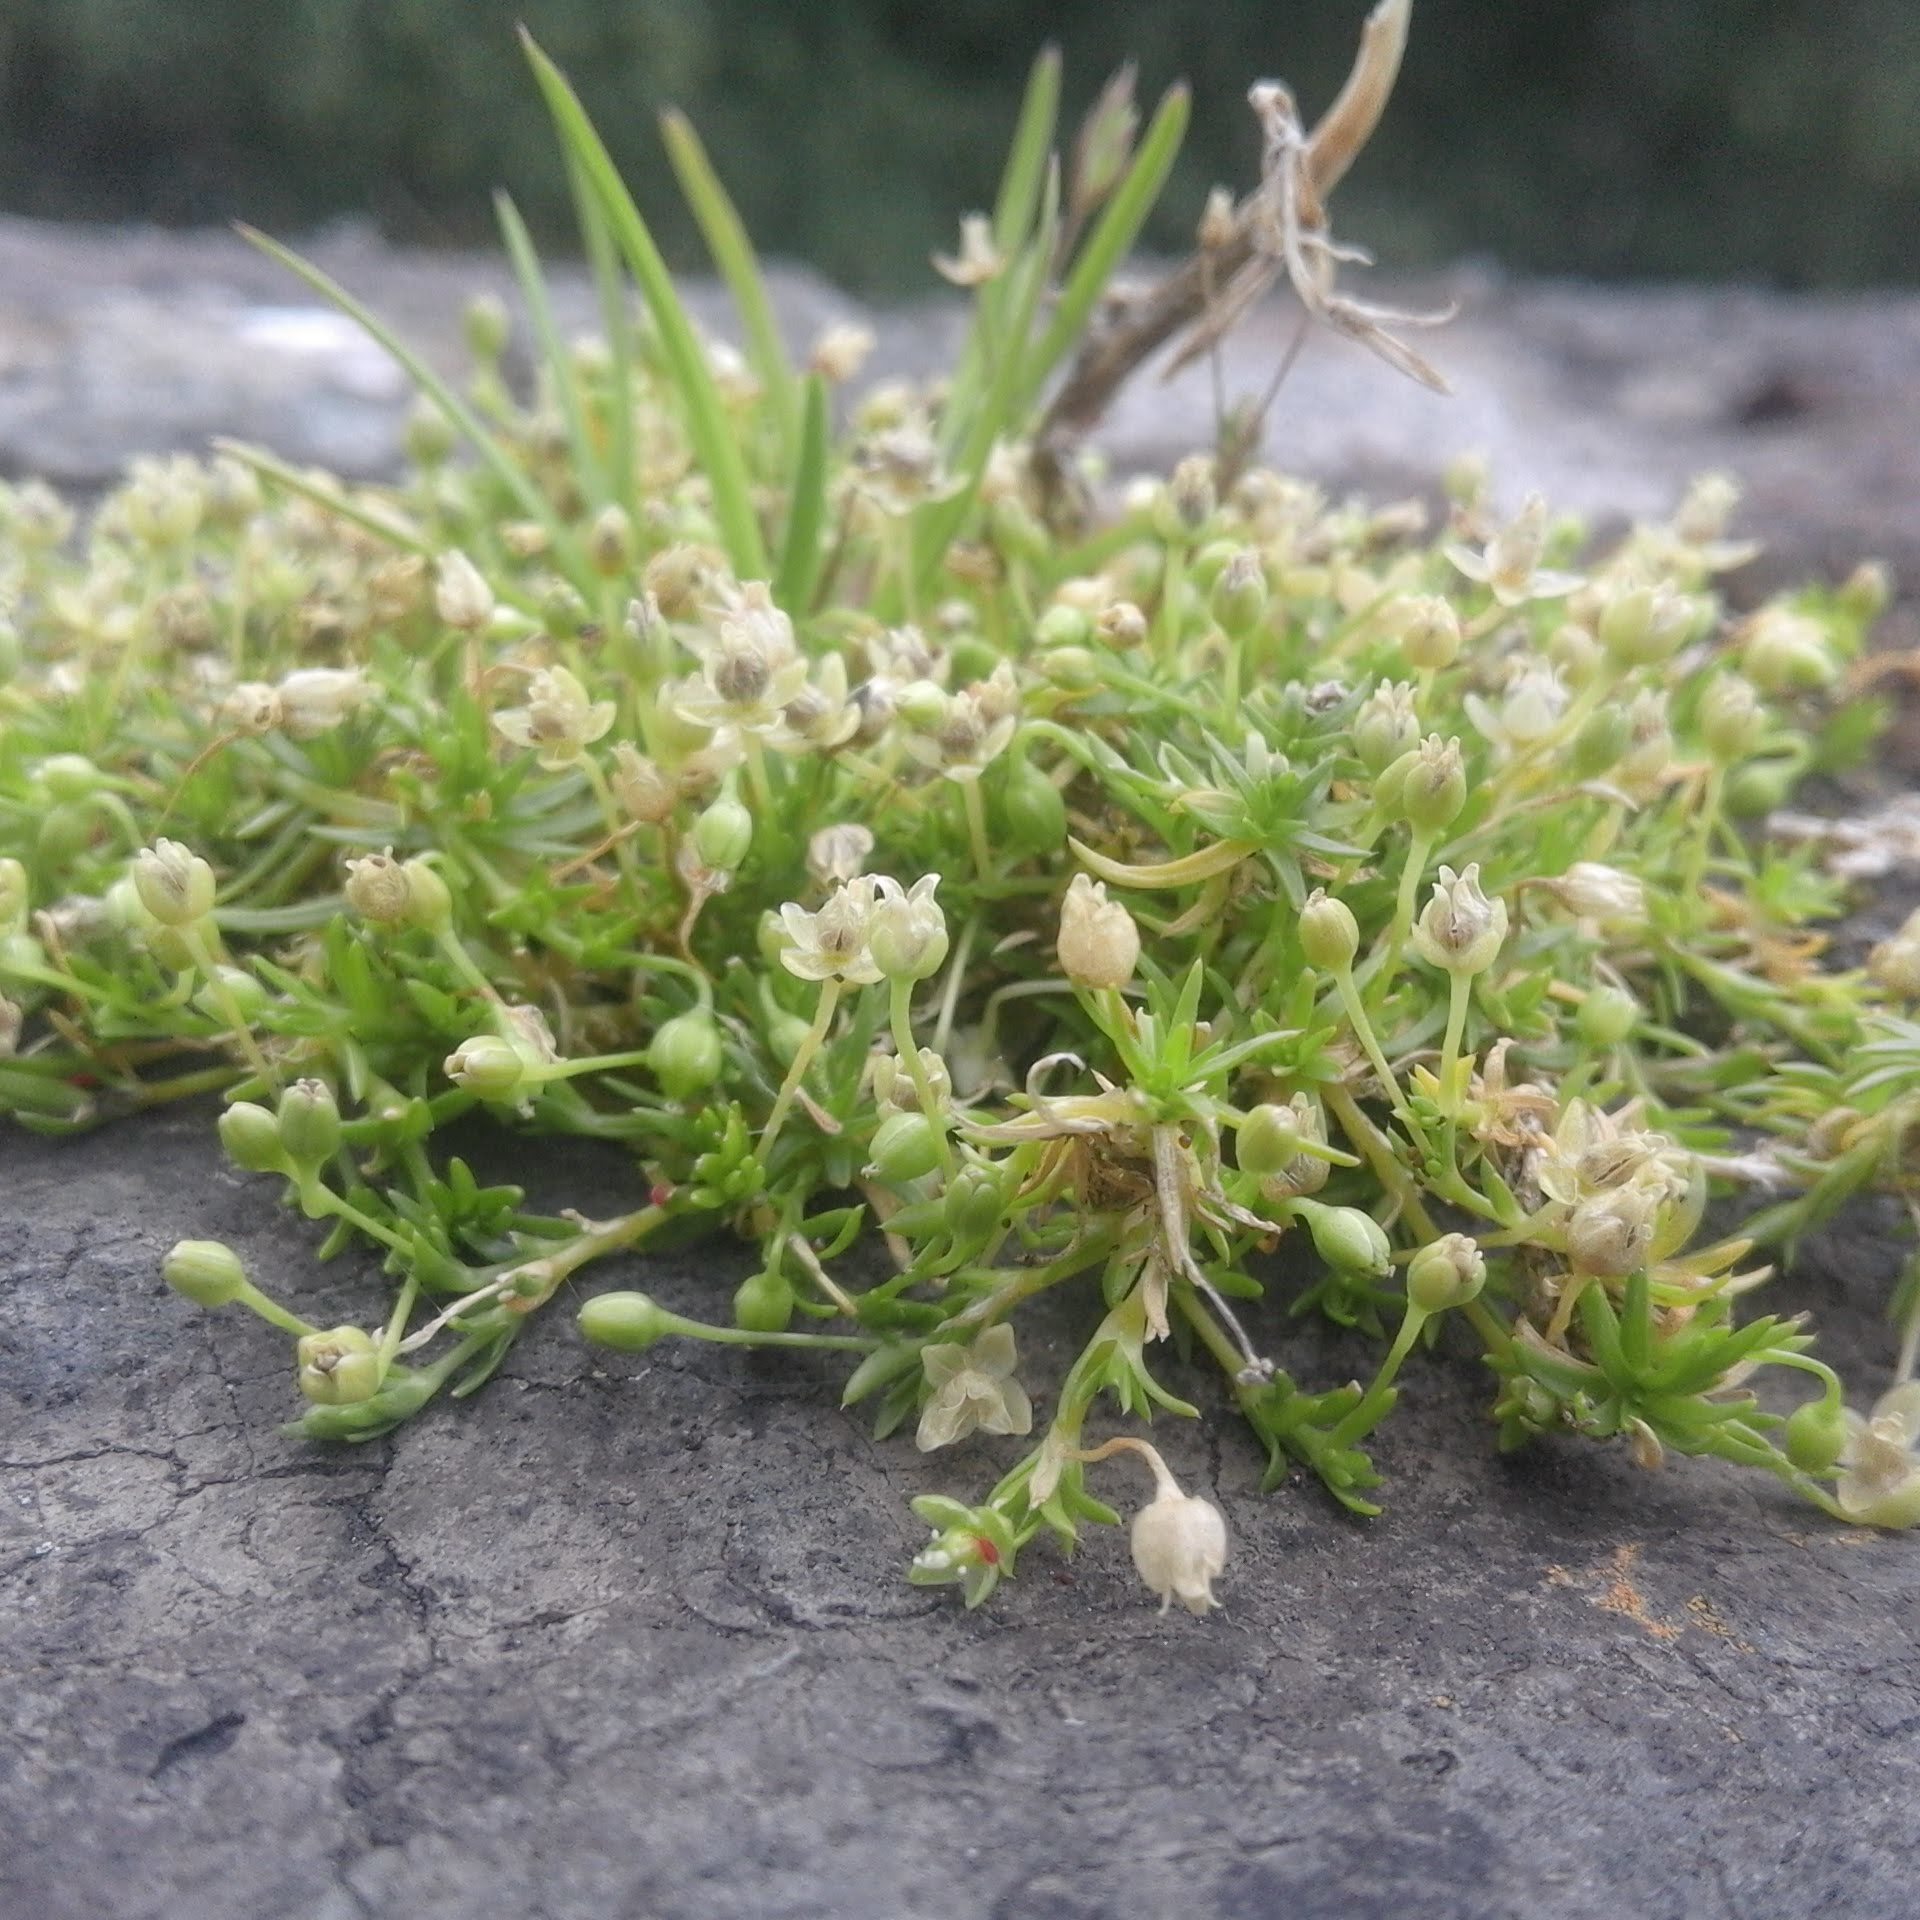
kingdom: Plantae
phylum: Tracheophyta
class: Magnoliopsida
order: Caryophyllales
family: Caryophyllaceae
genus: Sagina
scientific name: Sagina procumbens
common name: Procumbent pearlwort
